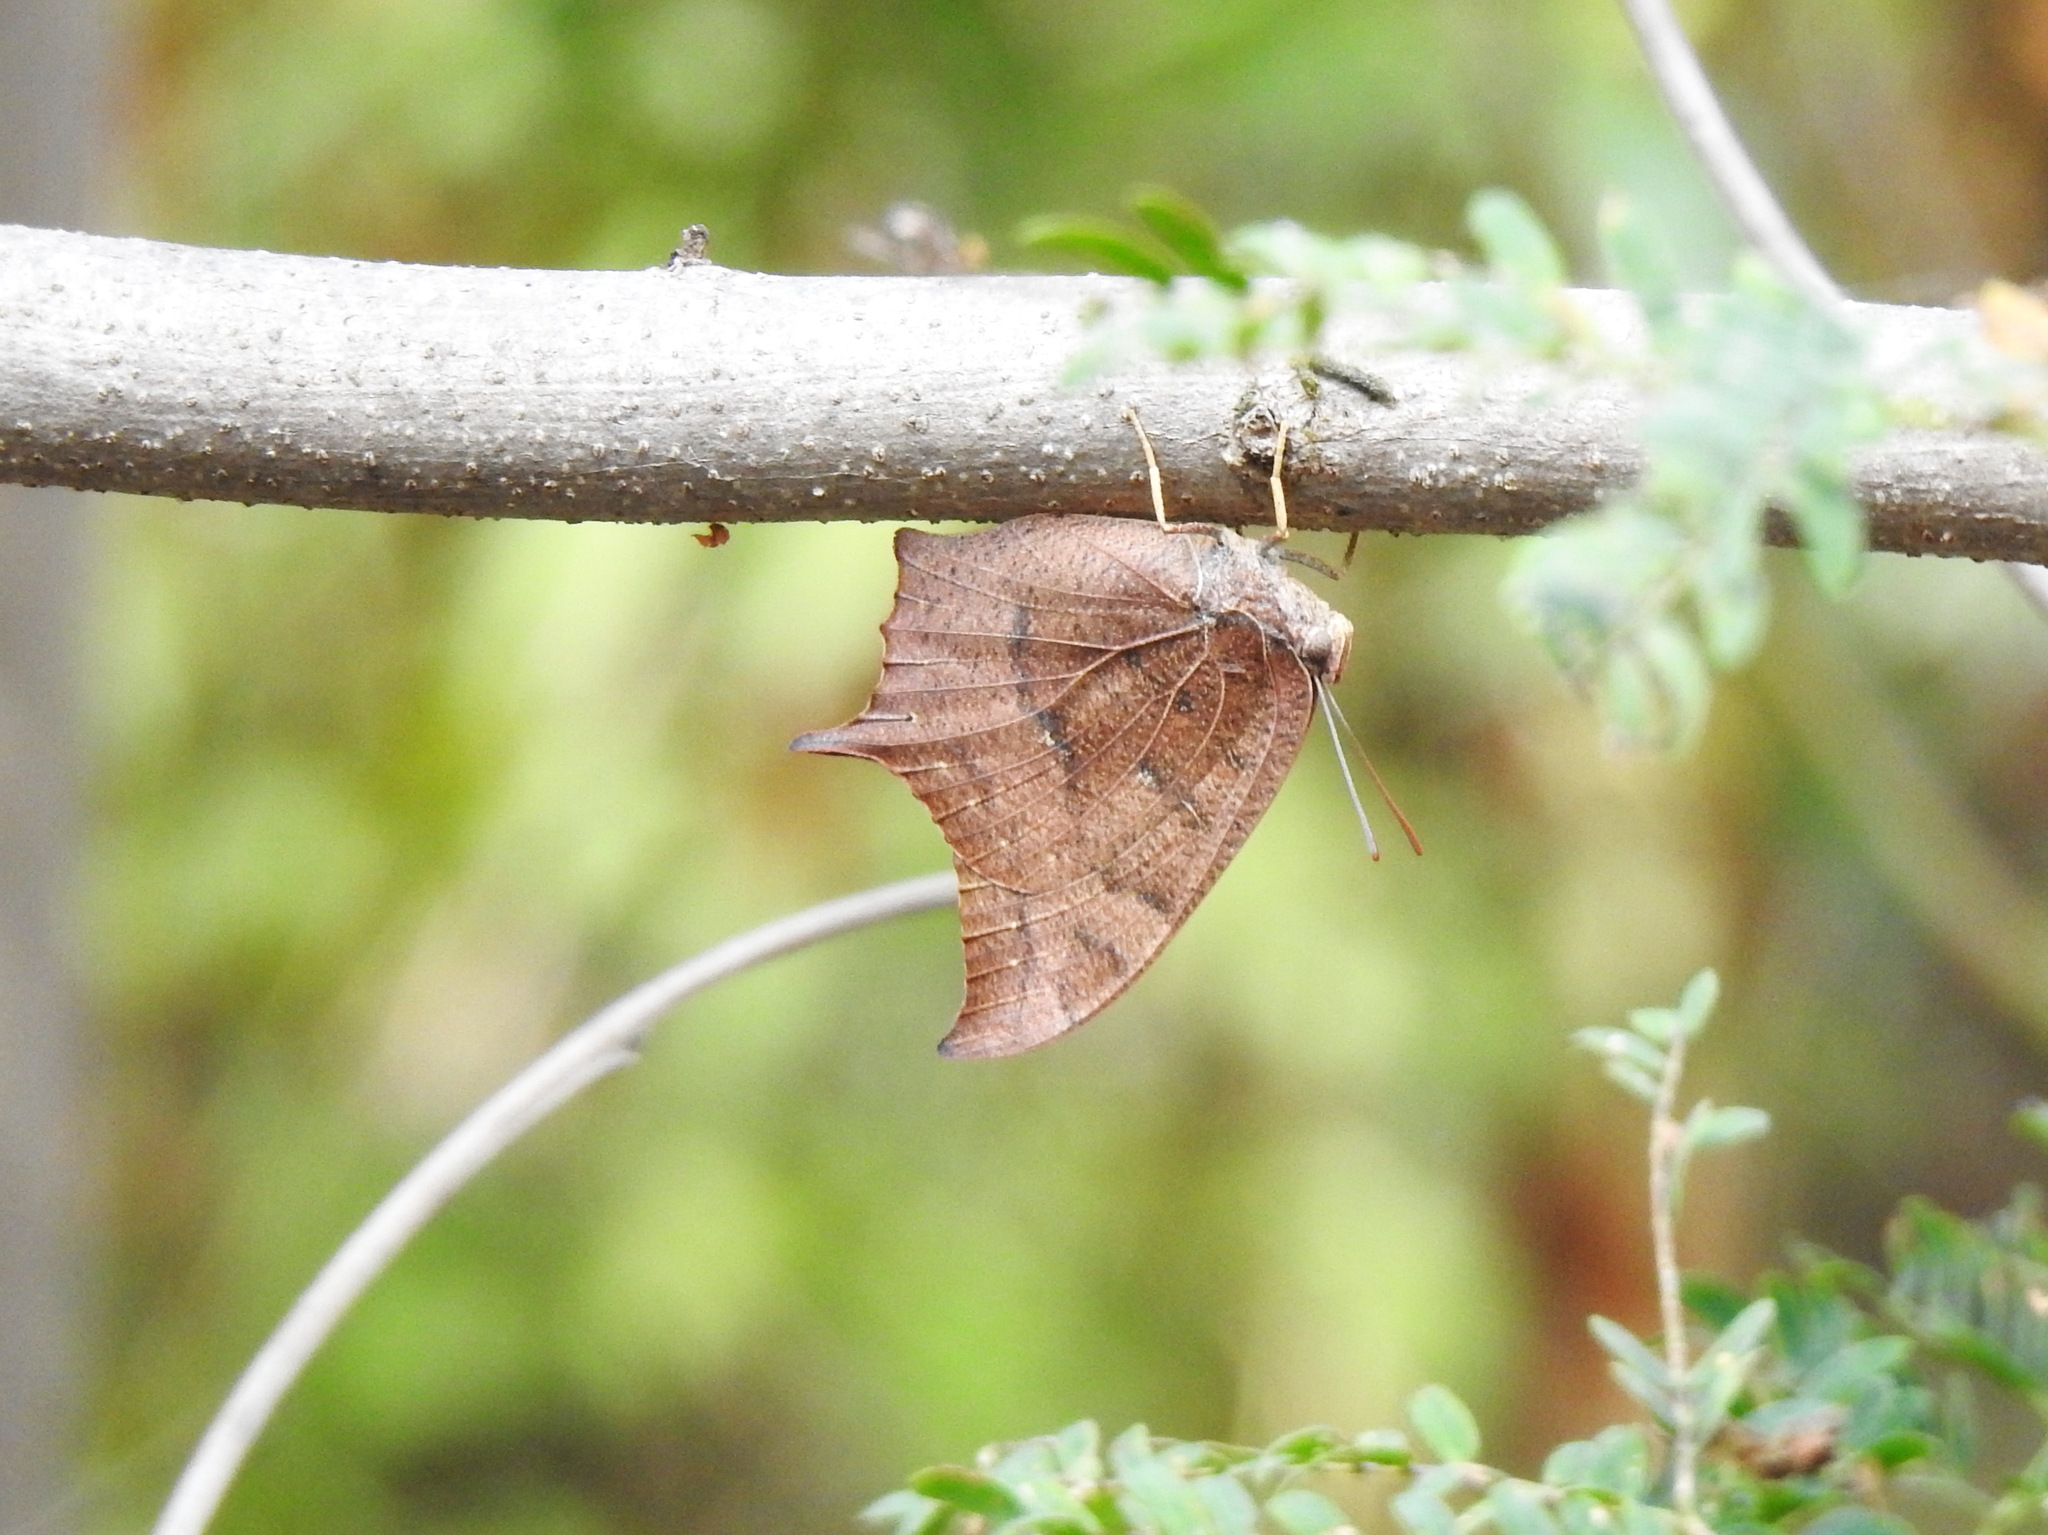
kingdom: Animalia
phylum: Arthropoda
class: Insecta
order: Lepidoptera
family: Nymphalidae
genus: Anaea
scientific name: Anaea andria
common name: Goatweed leafwing
